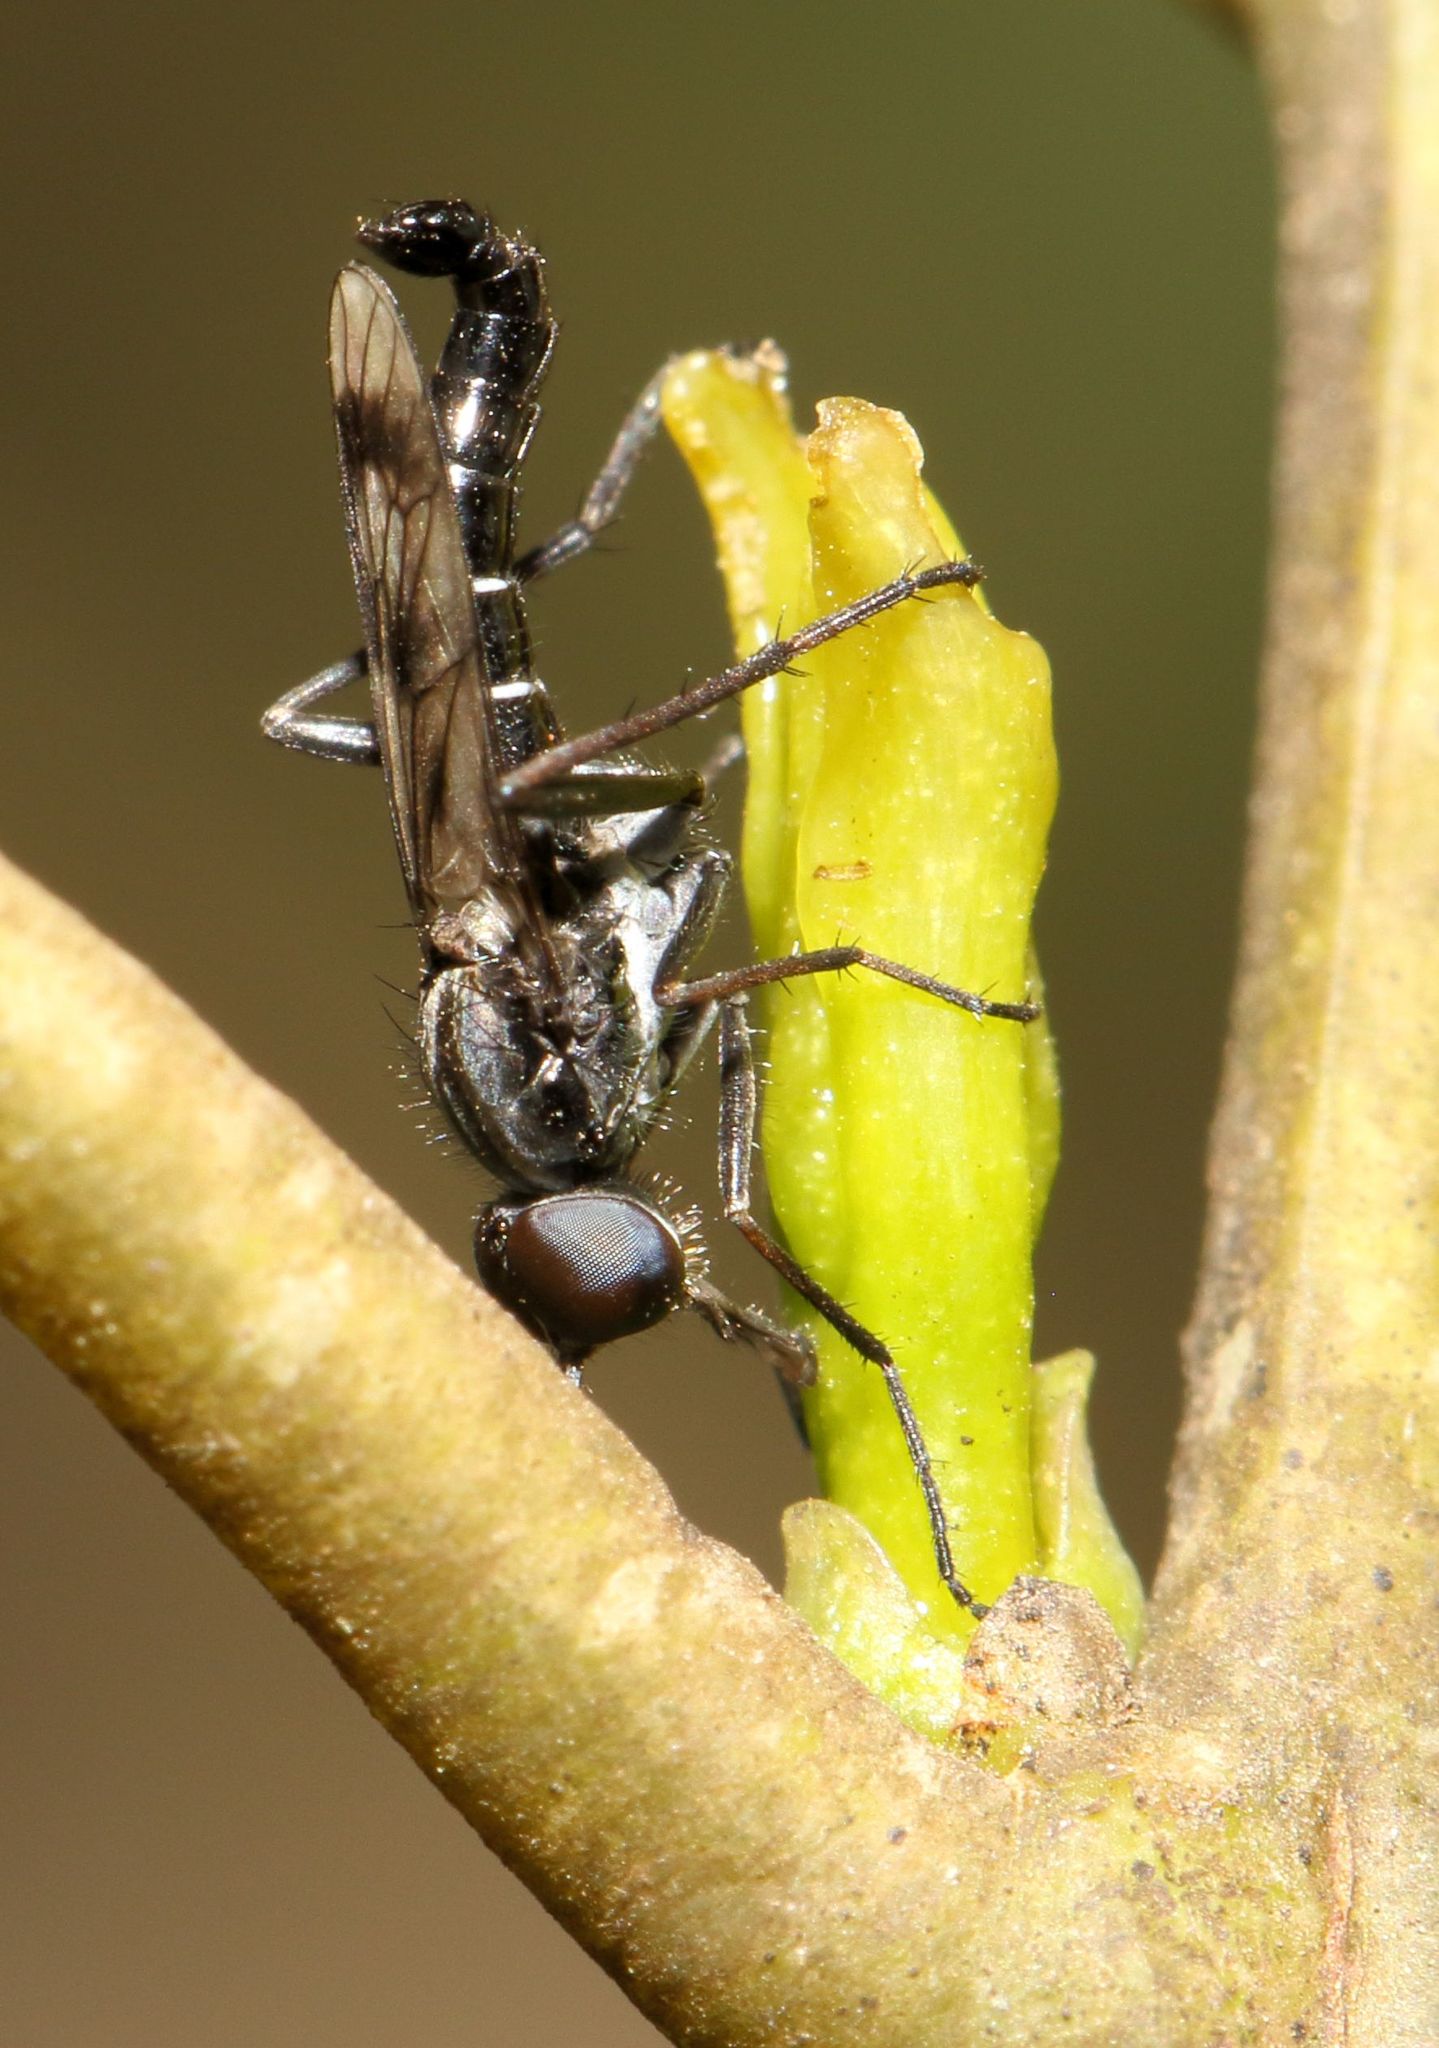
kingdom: Animalia
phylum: Arthropoda
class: Insecta
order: Diptera
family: Therevidae
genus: Hemigephyra
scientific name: Hemigephyra atra
